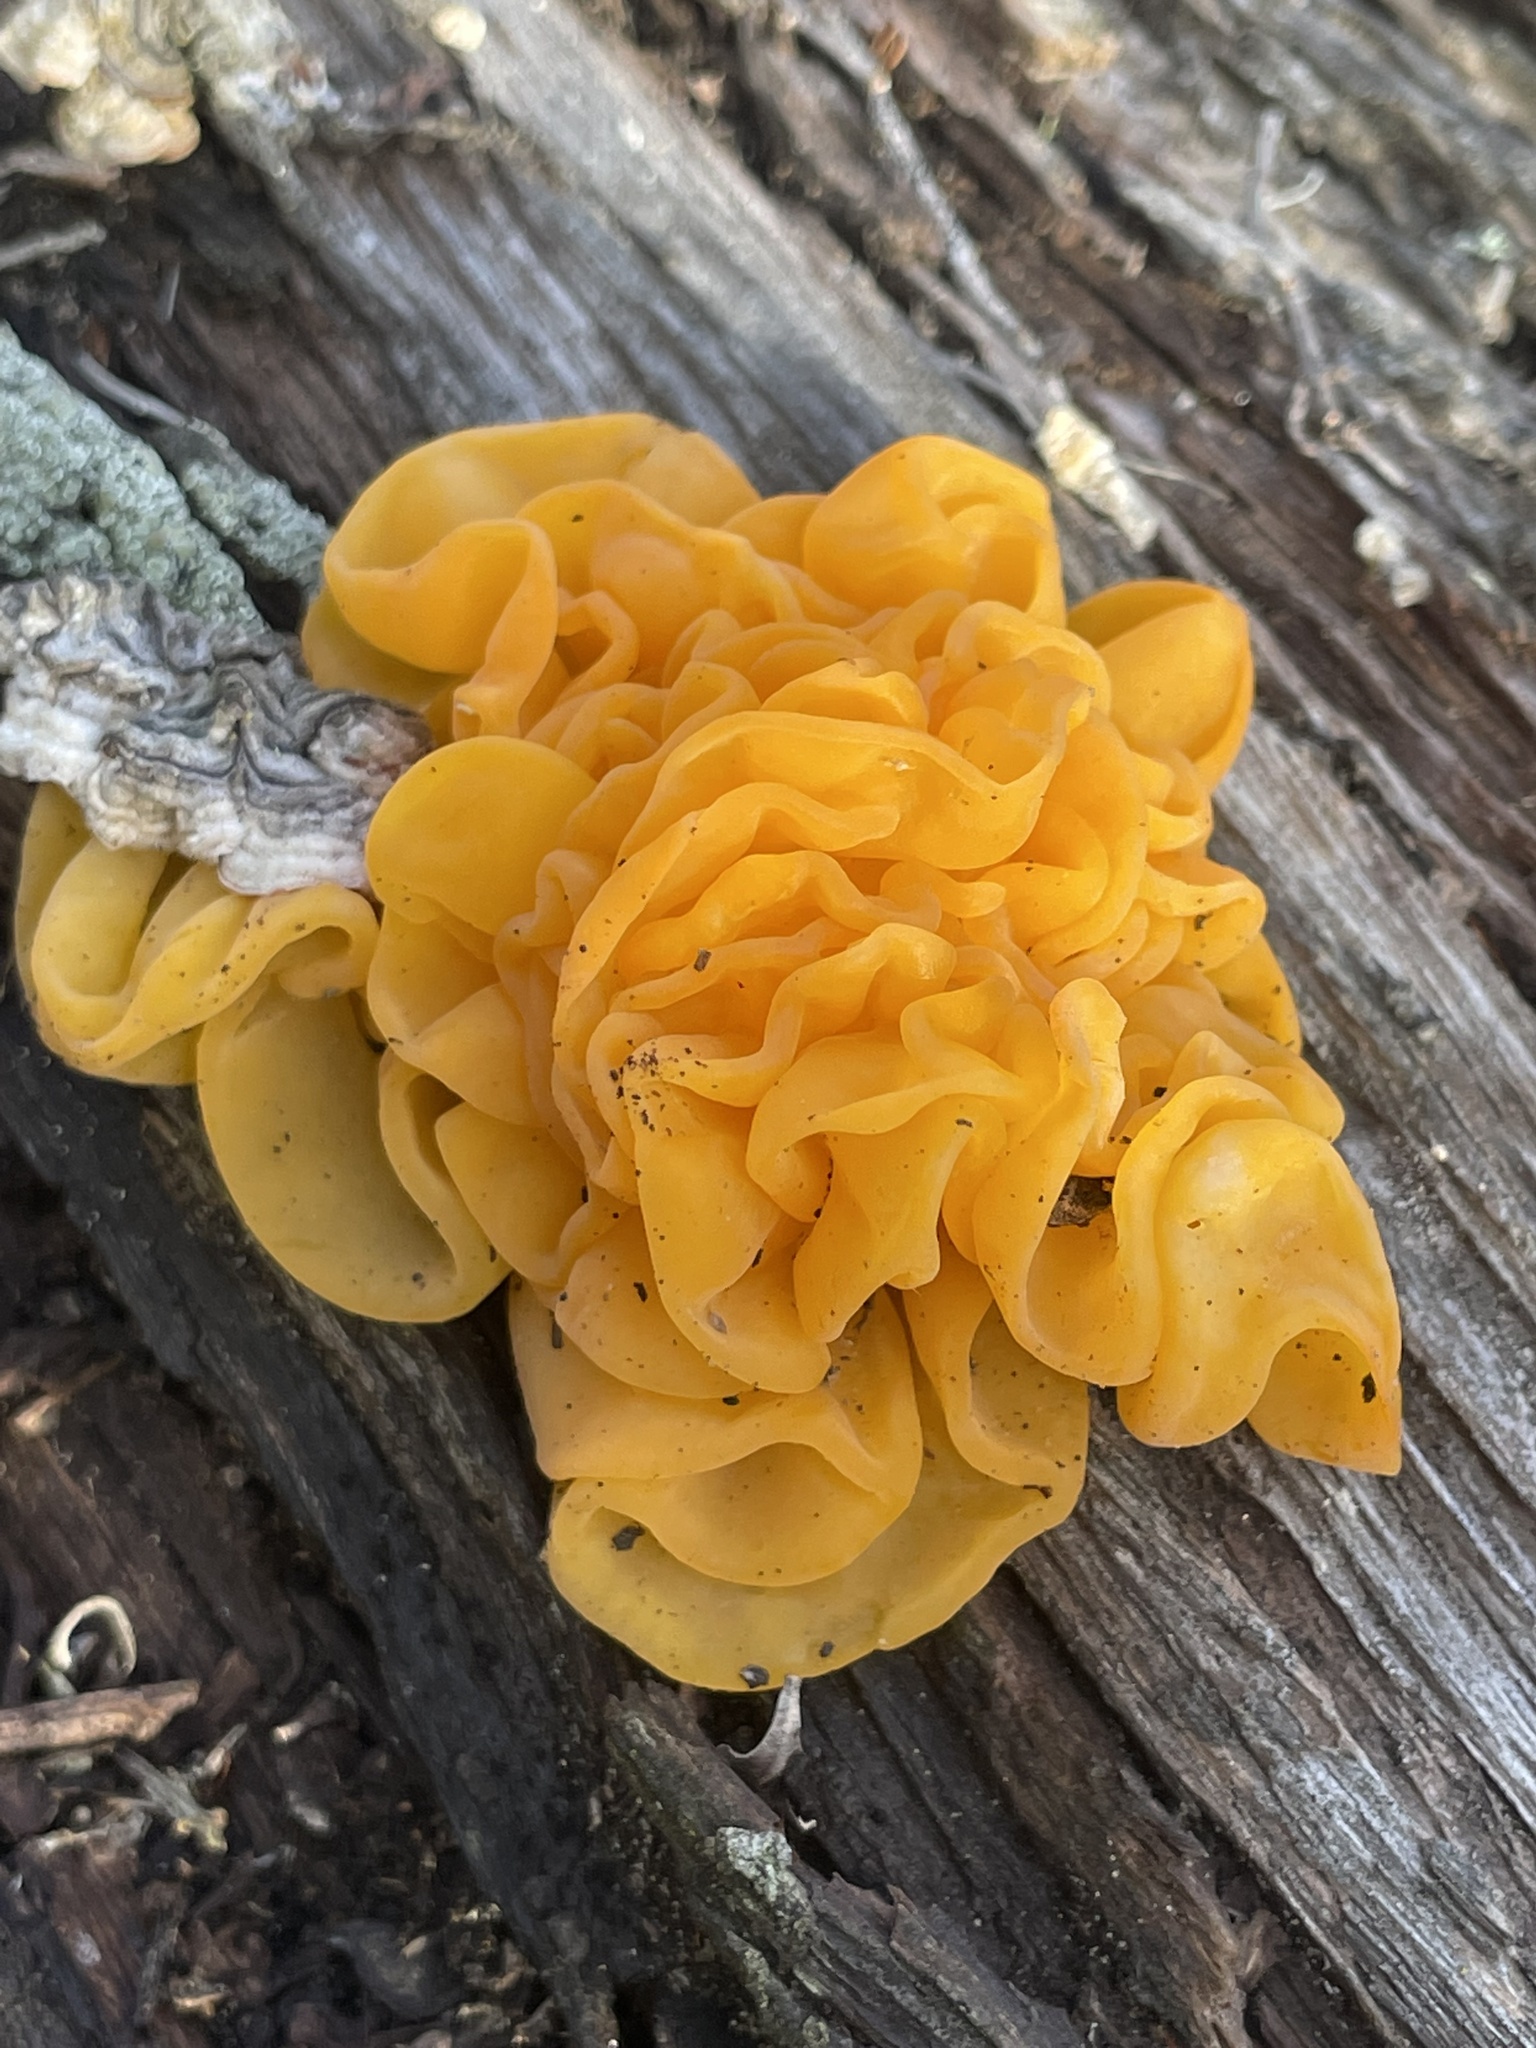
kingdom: Fungi
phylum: Basidiomycota
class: Tremellomycetes
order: Tremellales
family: Naemateliaceae
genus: Naematelia
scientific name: Naematelia aurantia
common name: Golden ear
